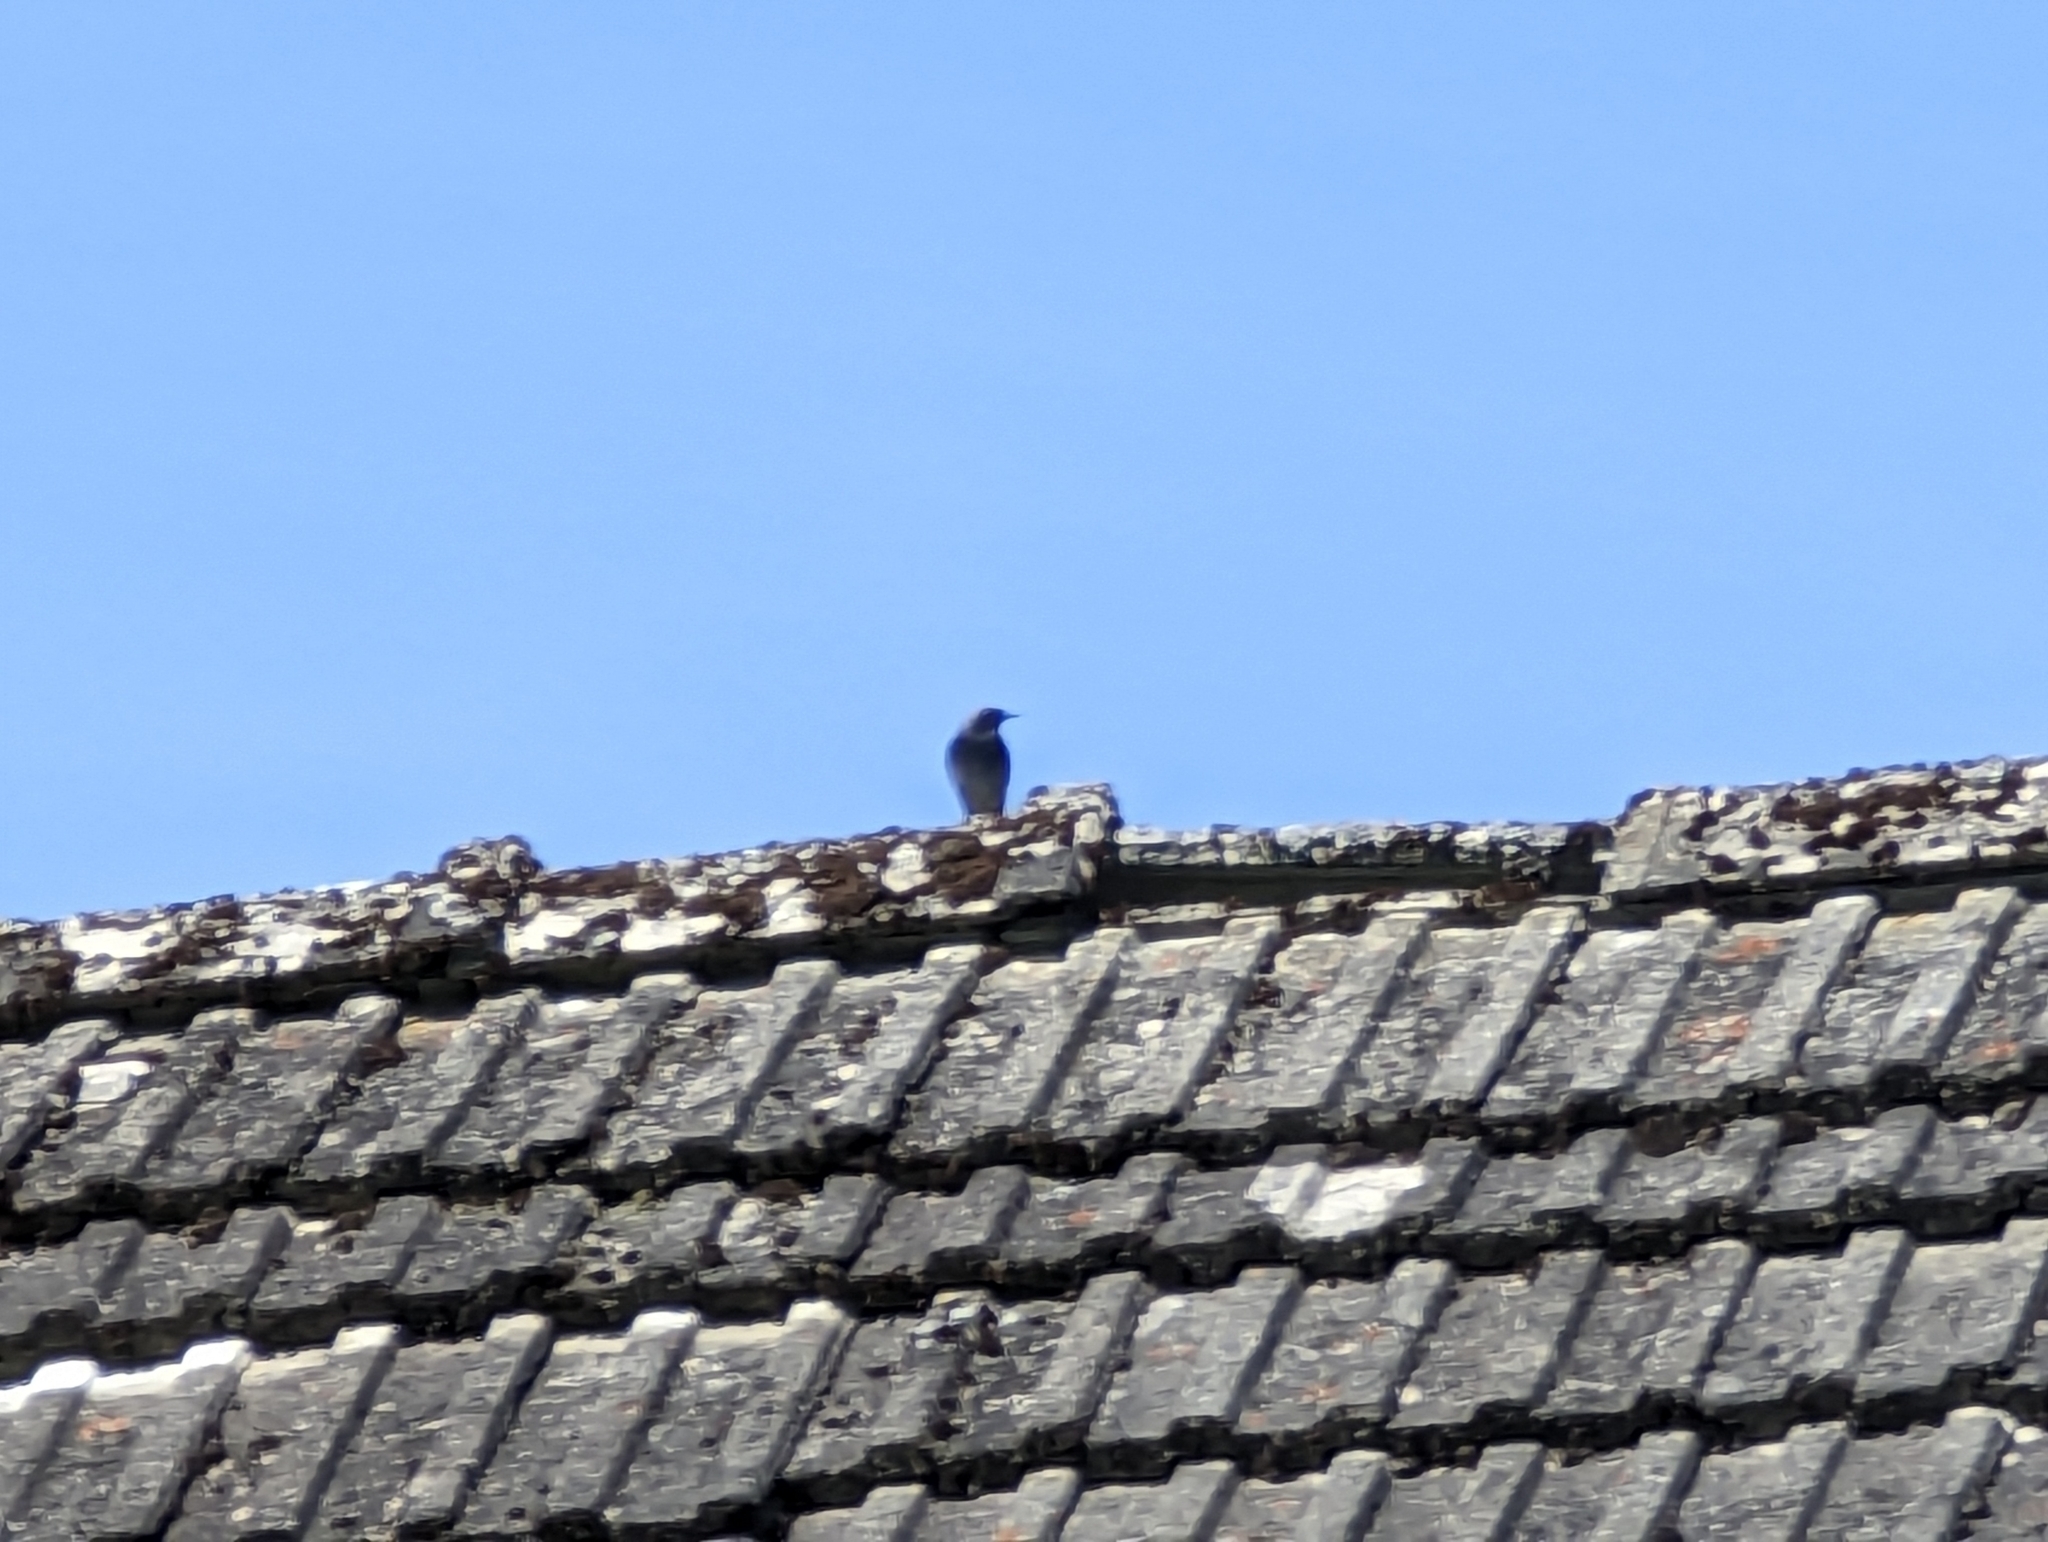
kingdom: Animalia
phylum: Chordata
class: Aves
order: Passeriformes
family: Muscicapidae
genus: Phoenicurus
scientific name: Phoenicurus ochruros
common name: Black redstart
